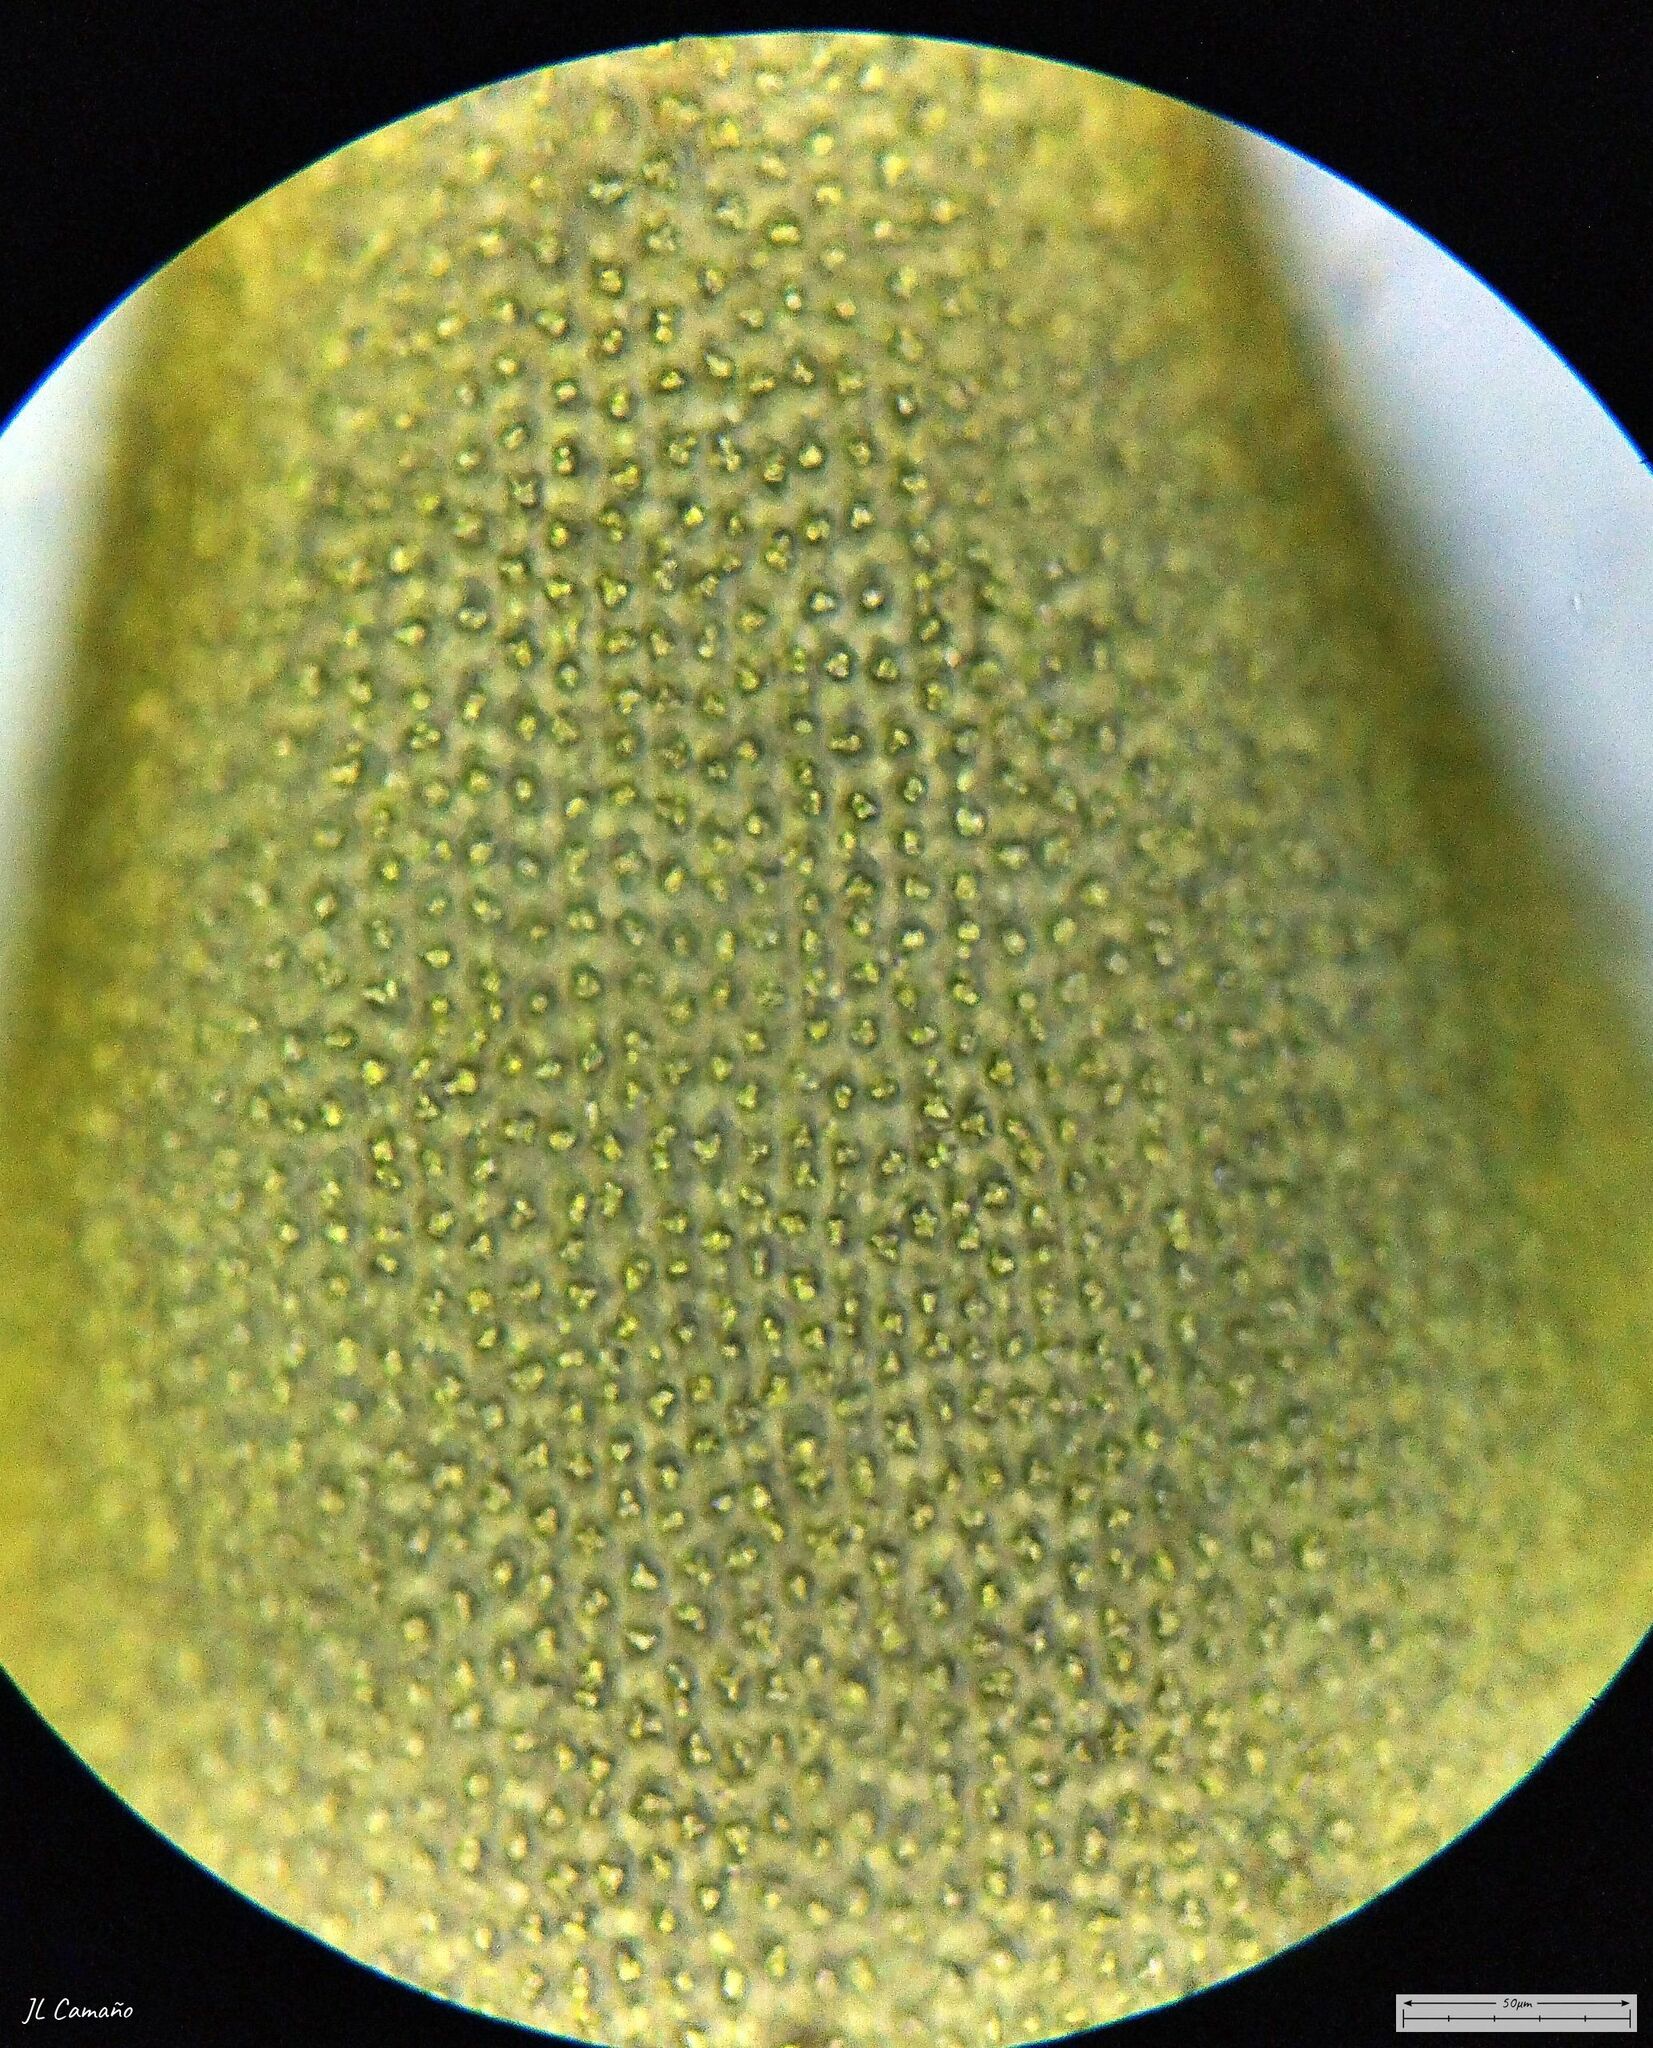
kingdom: Plantae
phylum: Bryophyta
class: Bryopsida
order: Hedwigiales
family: Hedwigiaceae
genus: Hedwigia
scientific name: Hedwigia stellata
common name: Starry hoar-moss
